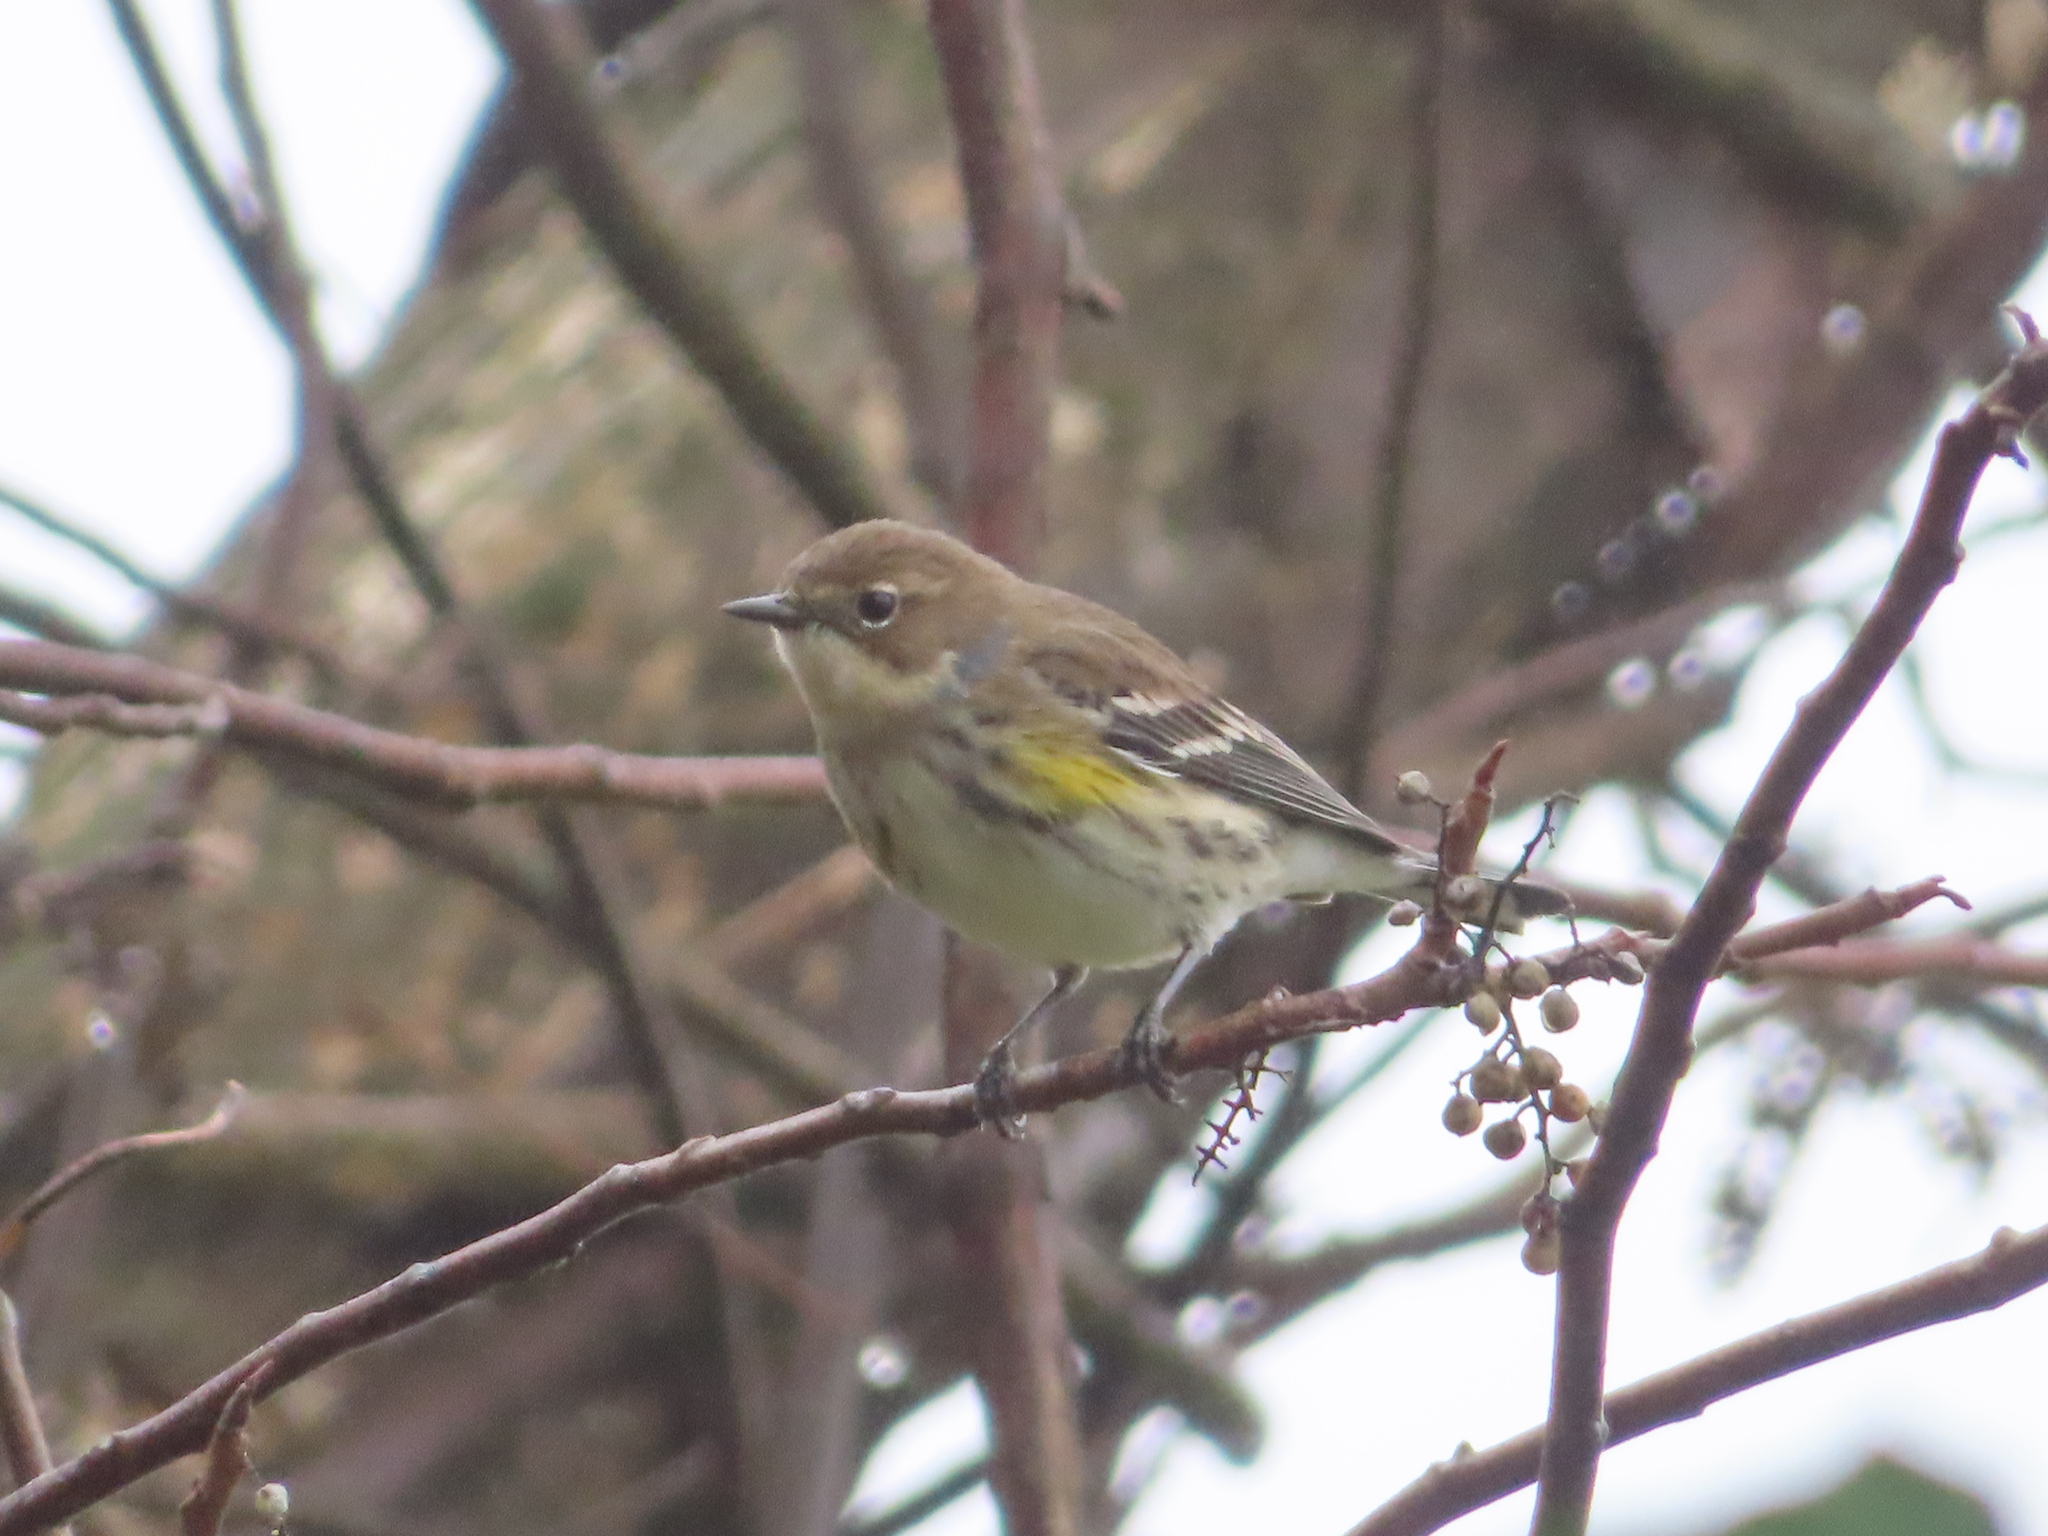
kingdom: Animalia
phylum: Chordata
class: Aves
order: Passeriformes
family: Parulidae
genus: Setophaga
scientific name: Setophaga coronata
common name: Myrtle warbler
